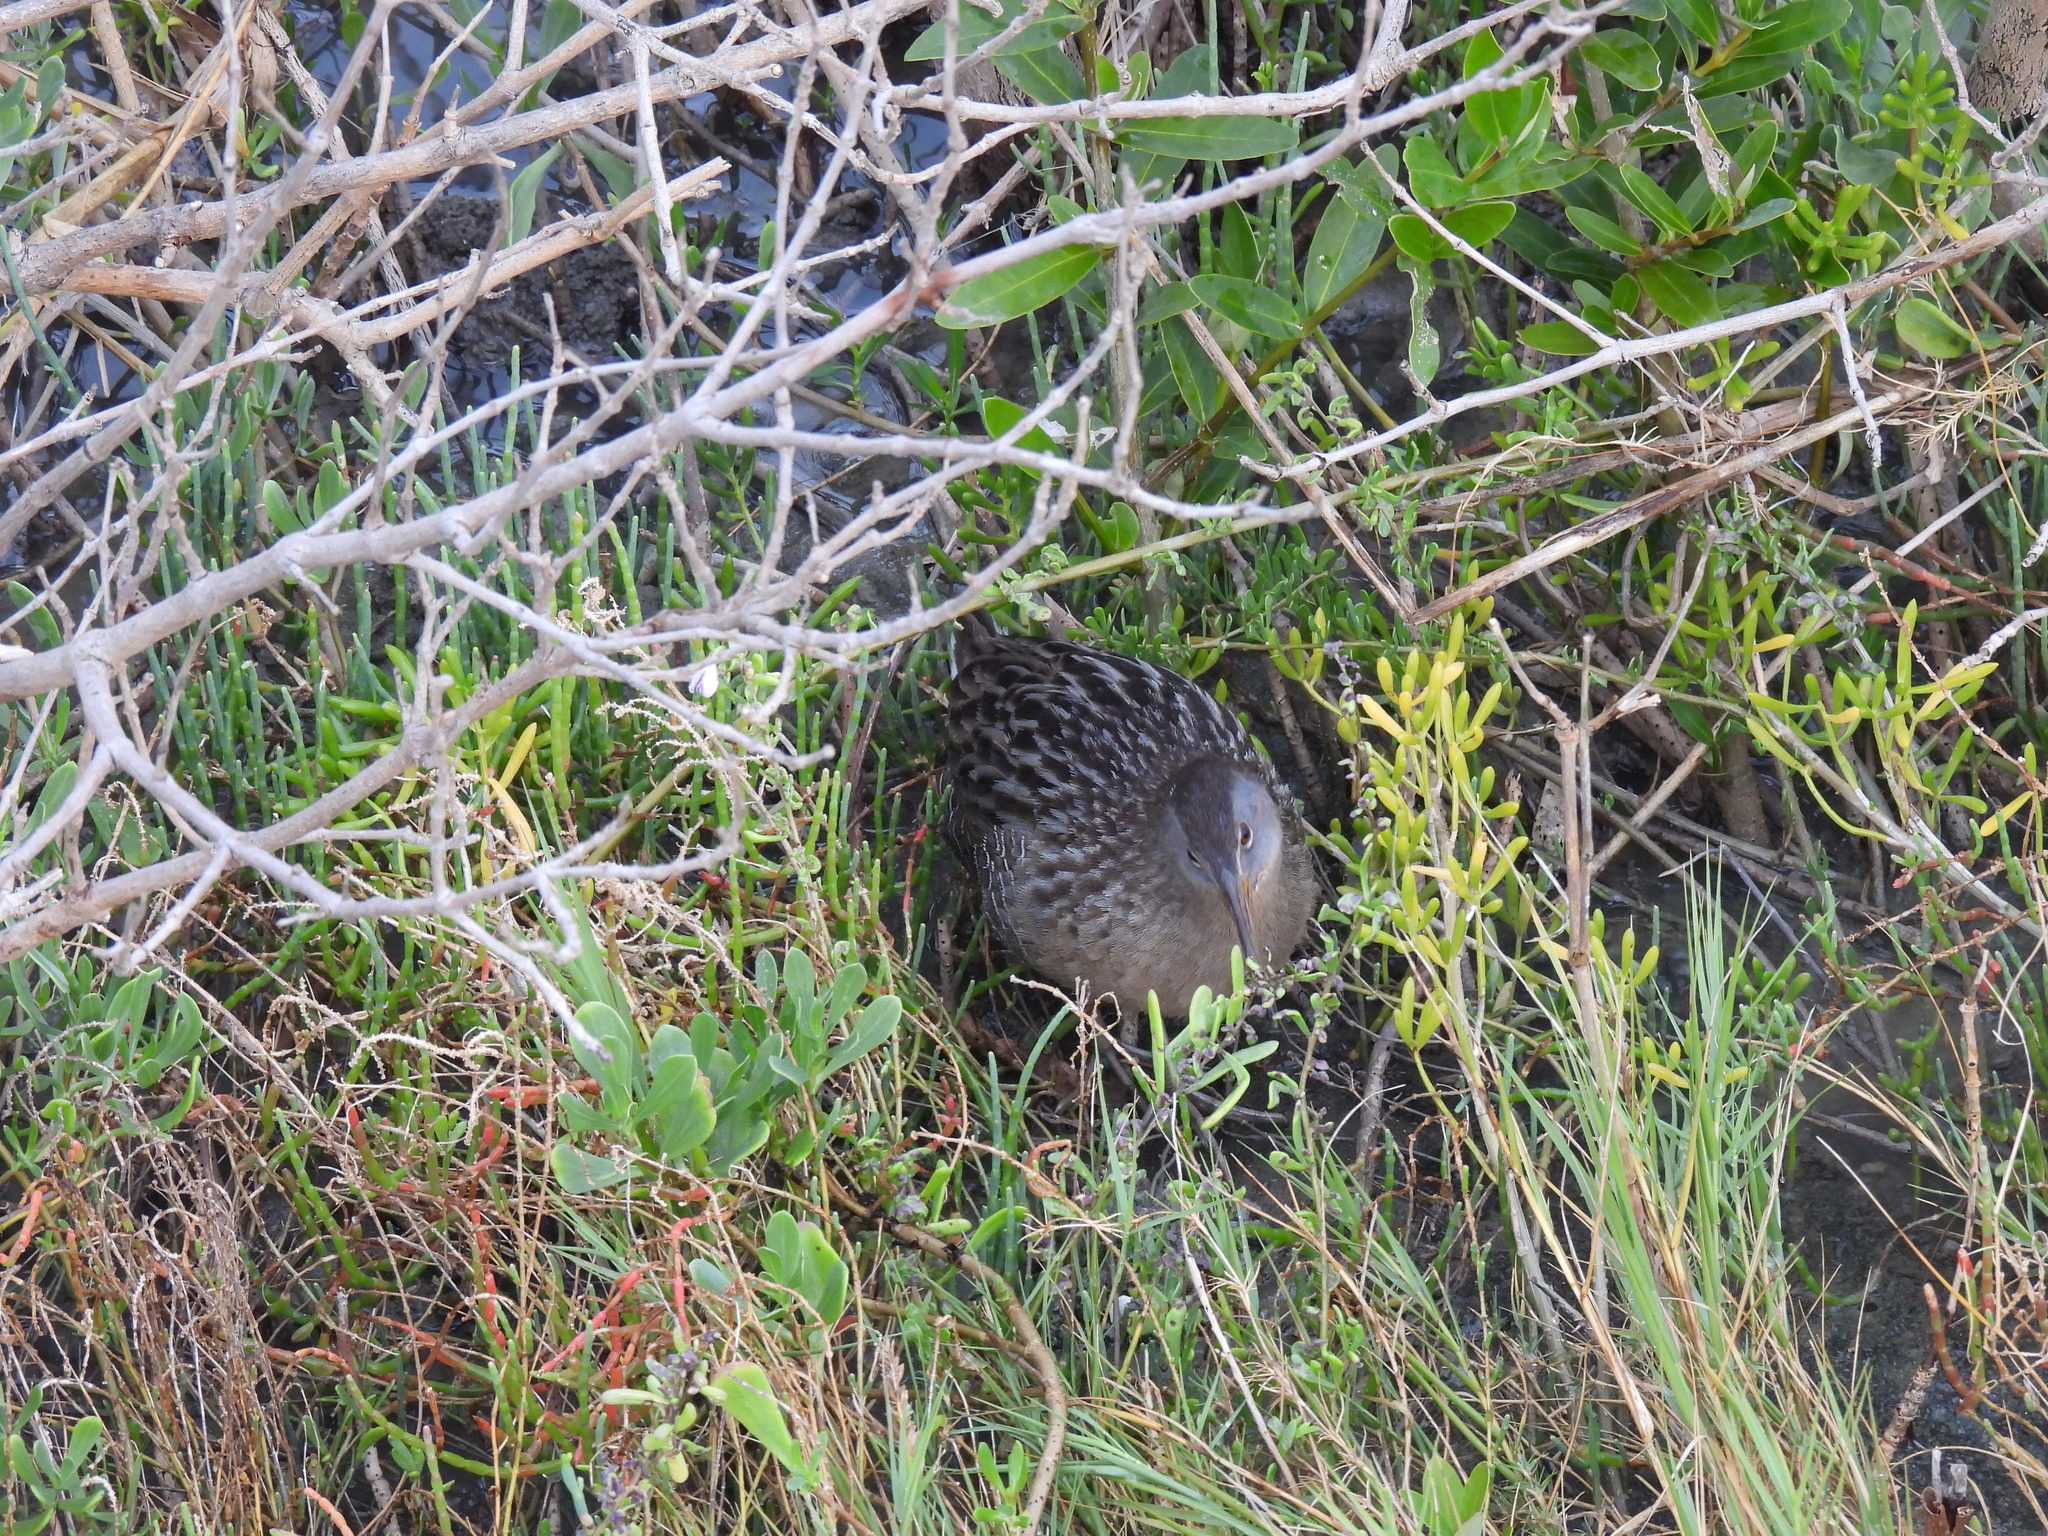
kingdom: Animalia
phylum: Chordata
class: Aves
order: Gruiformes
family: Rallidae
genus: Rallus
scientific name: Rallus crepitans
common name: Clapper rail
